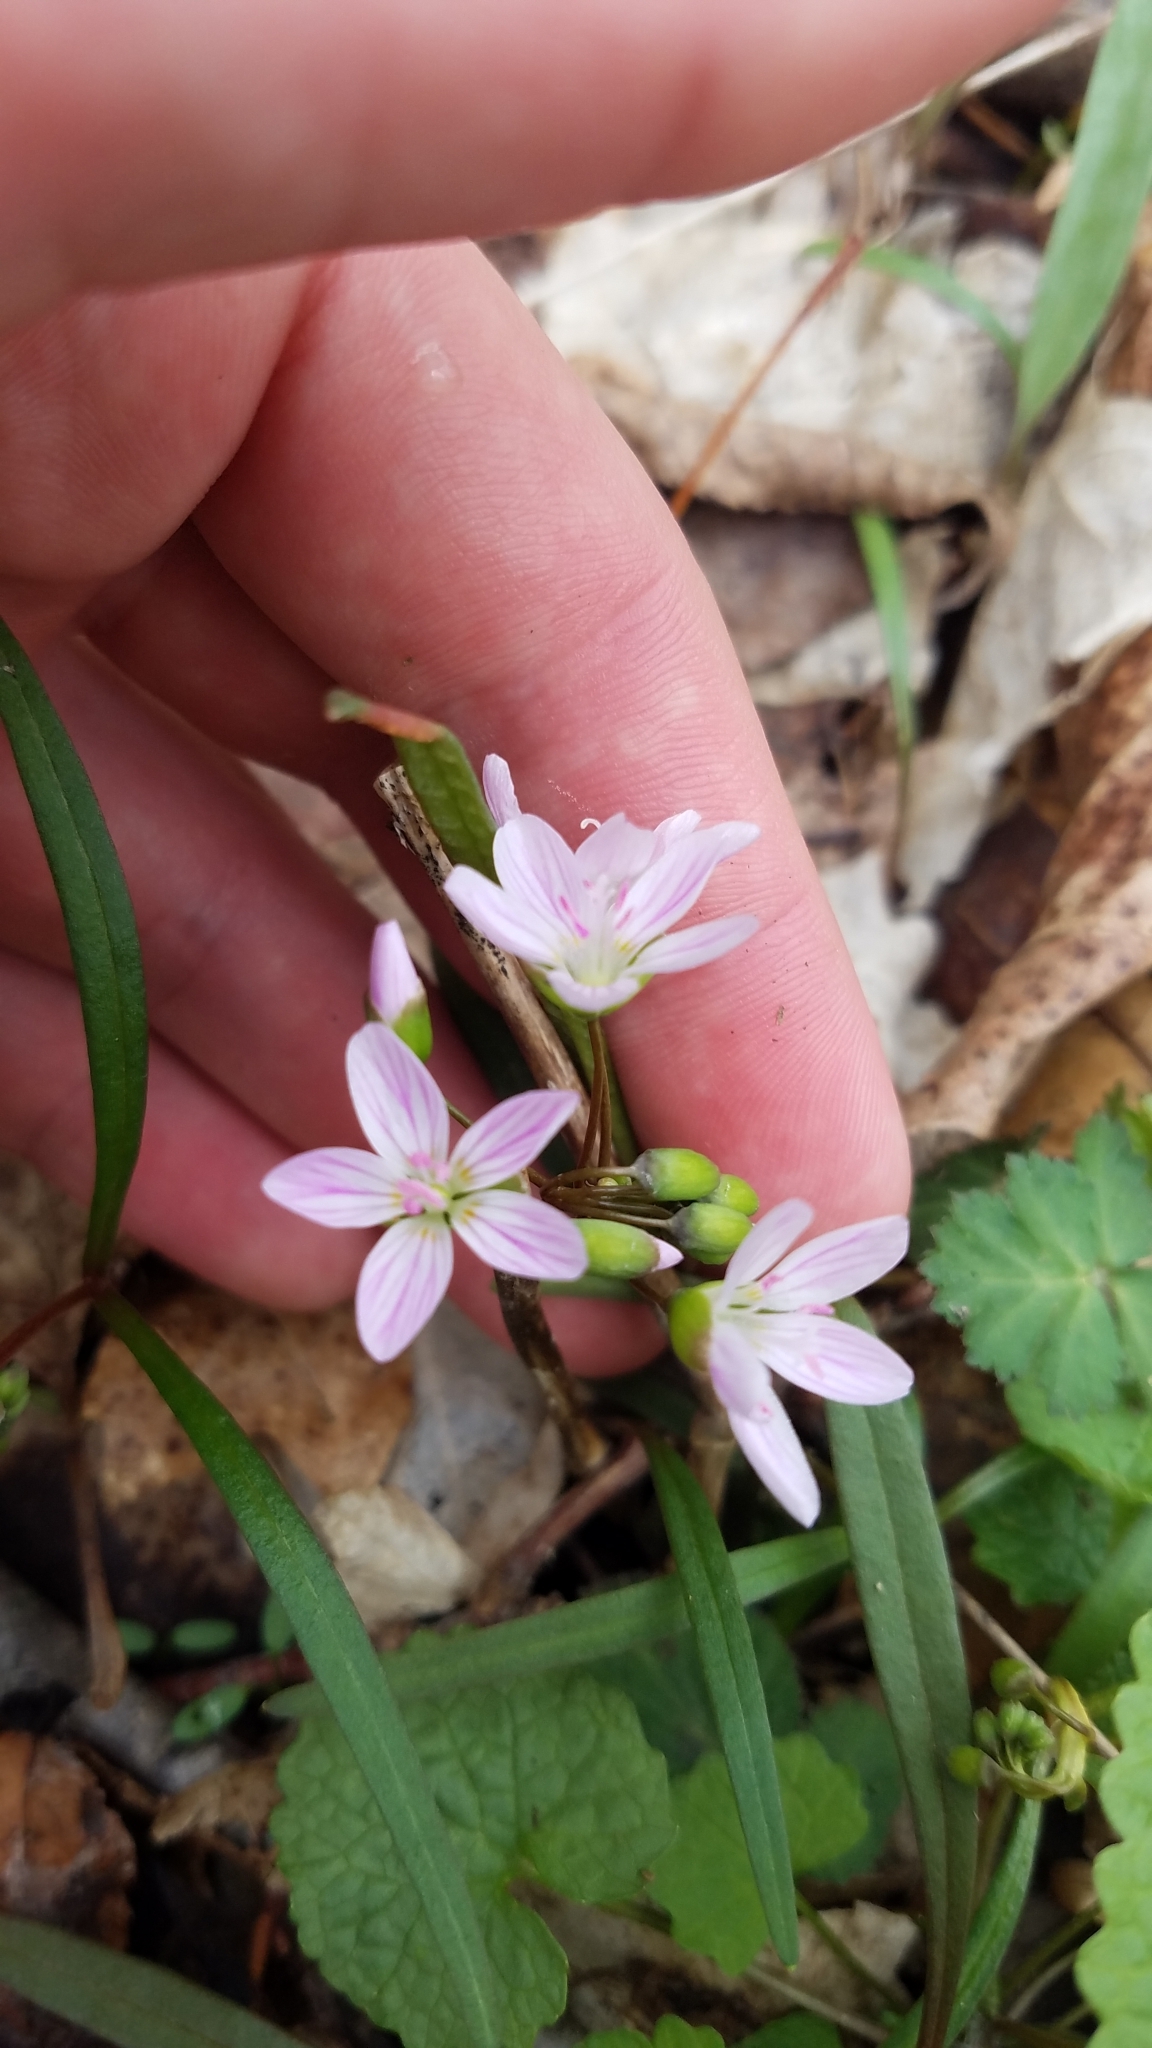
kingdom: Plantae
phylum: Tracheophyta
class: Magnoliopsida
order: Caryophyllales
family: Montiaceae
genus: Claytonia
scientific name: Claytonia virginica
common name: Virginia springbeauty
